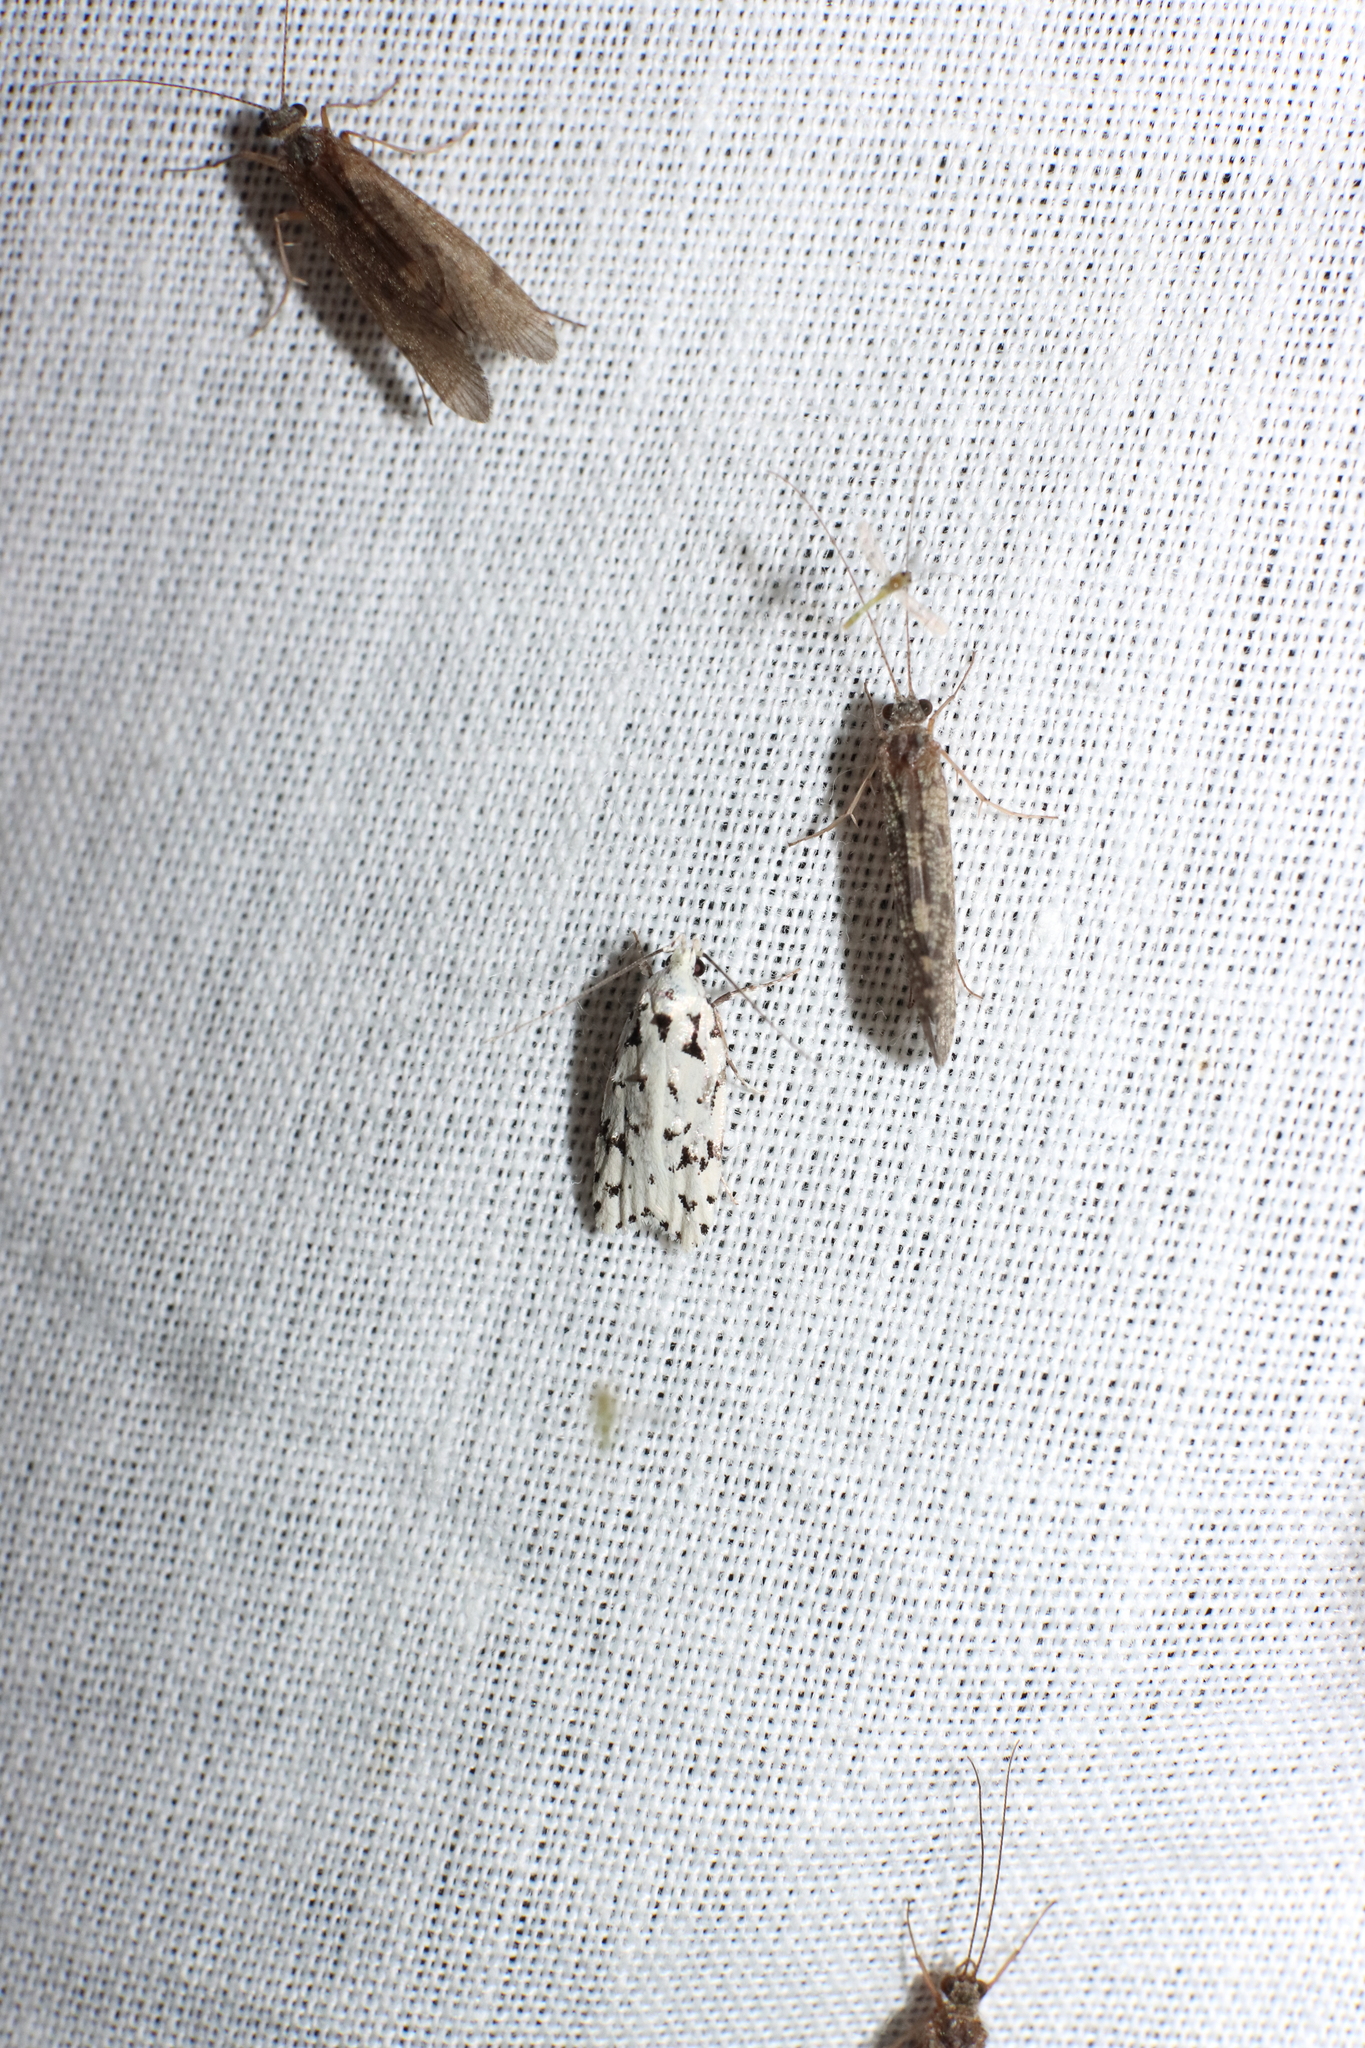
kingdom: Animalia
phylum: Arthropoda
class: Insecta
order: Lepidoptera
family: Oecophoridae
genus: Izatha
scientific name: Izatha peroneanella
